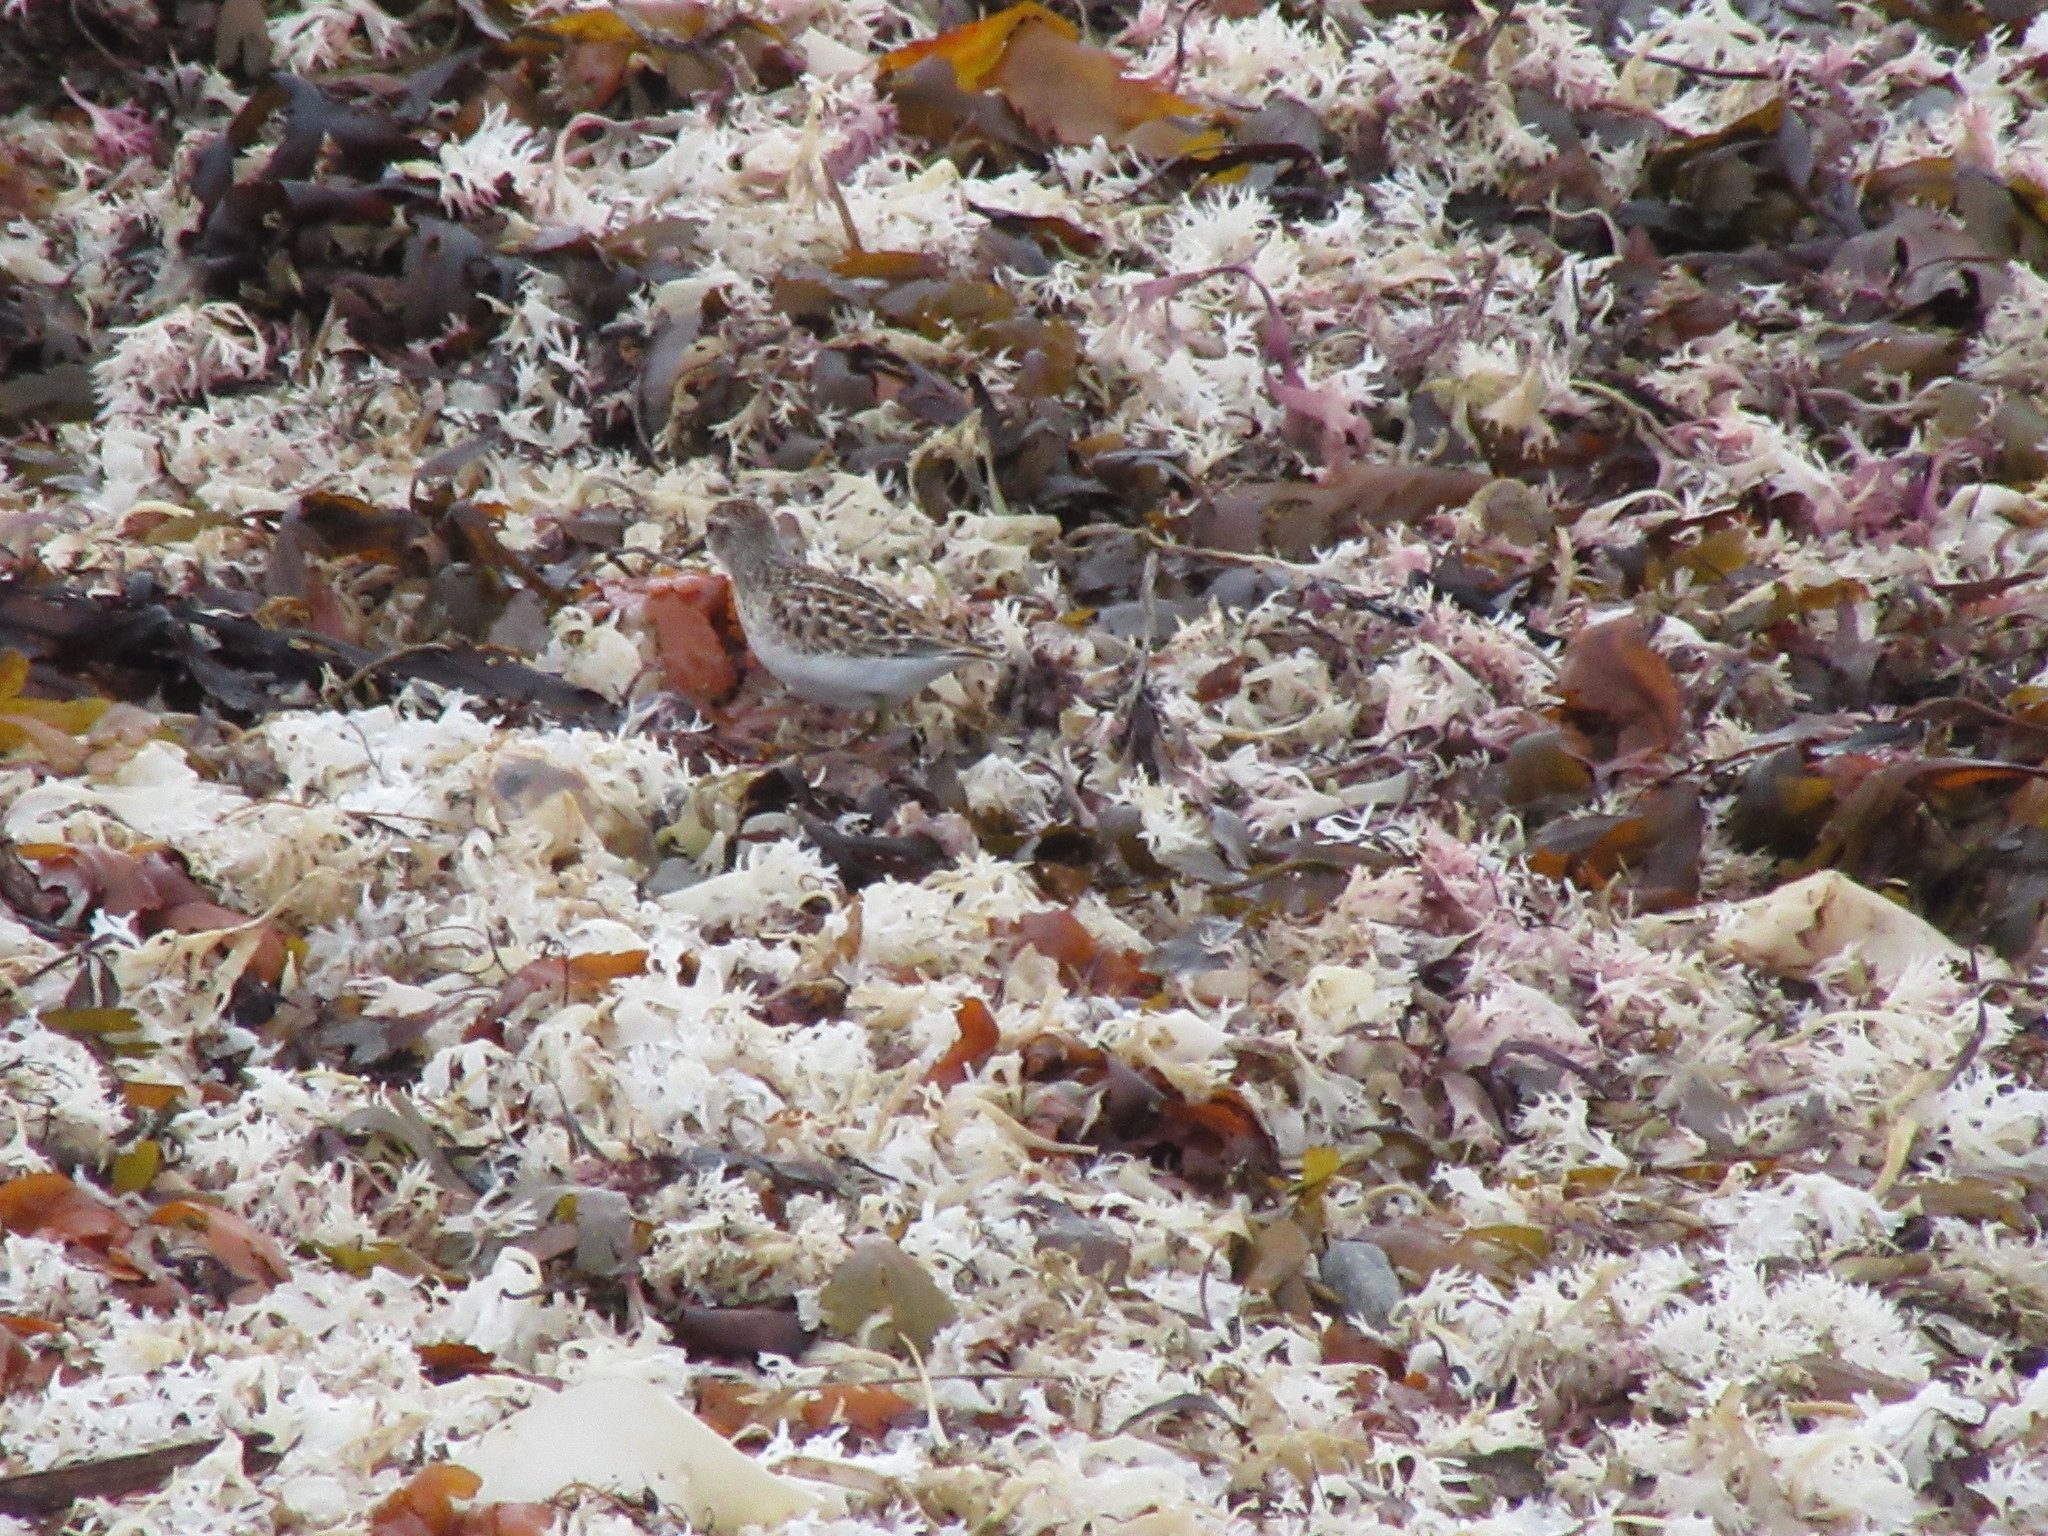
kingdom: Animalia
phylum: Chordata
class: Aves
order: Charadriiformes
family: Scolopacidae
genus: Calidris
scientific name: Calidris minutilla
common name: Least sandpiper
